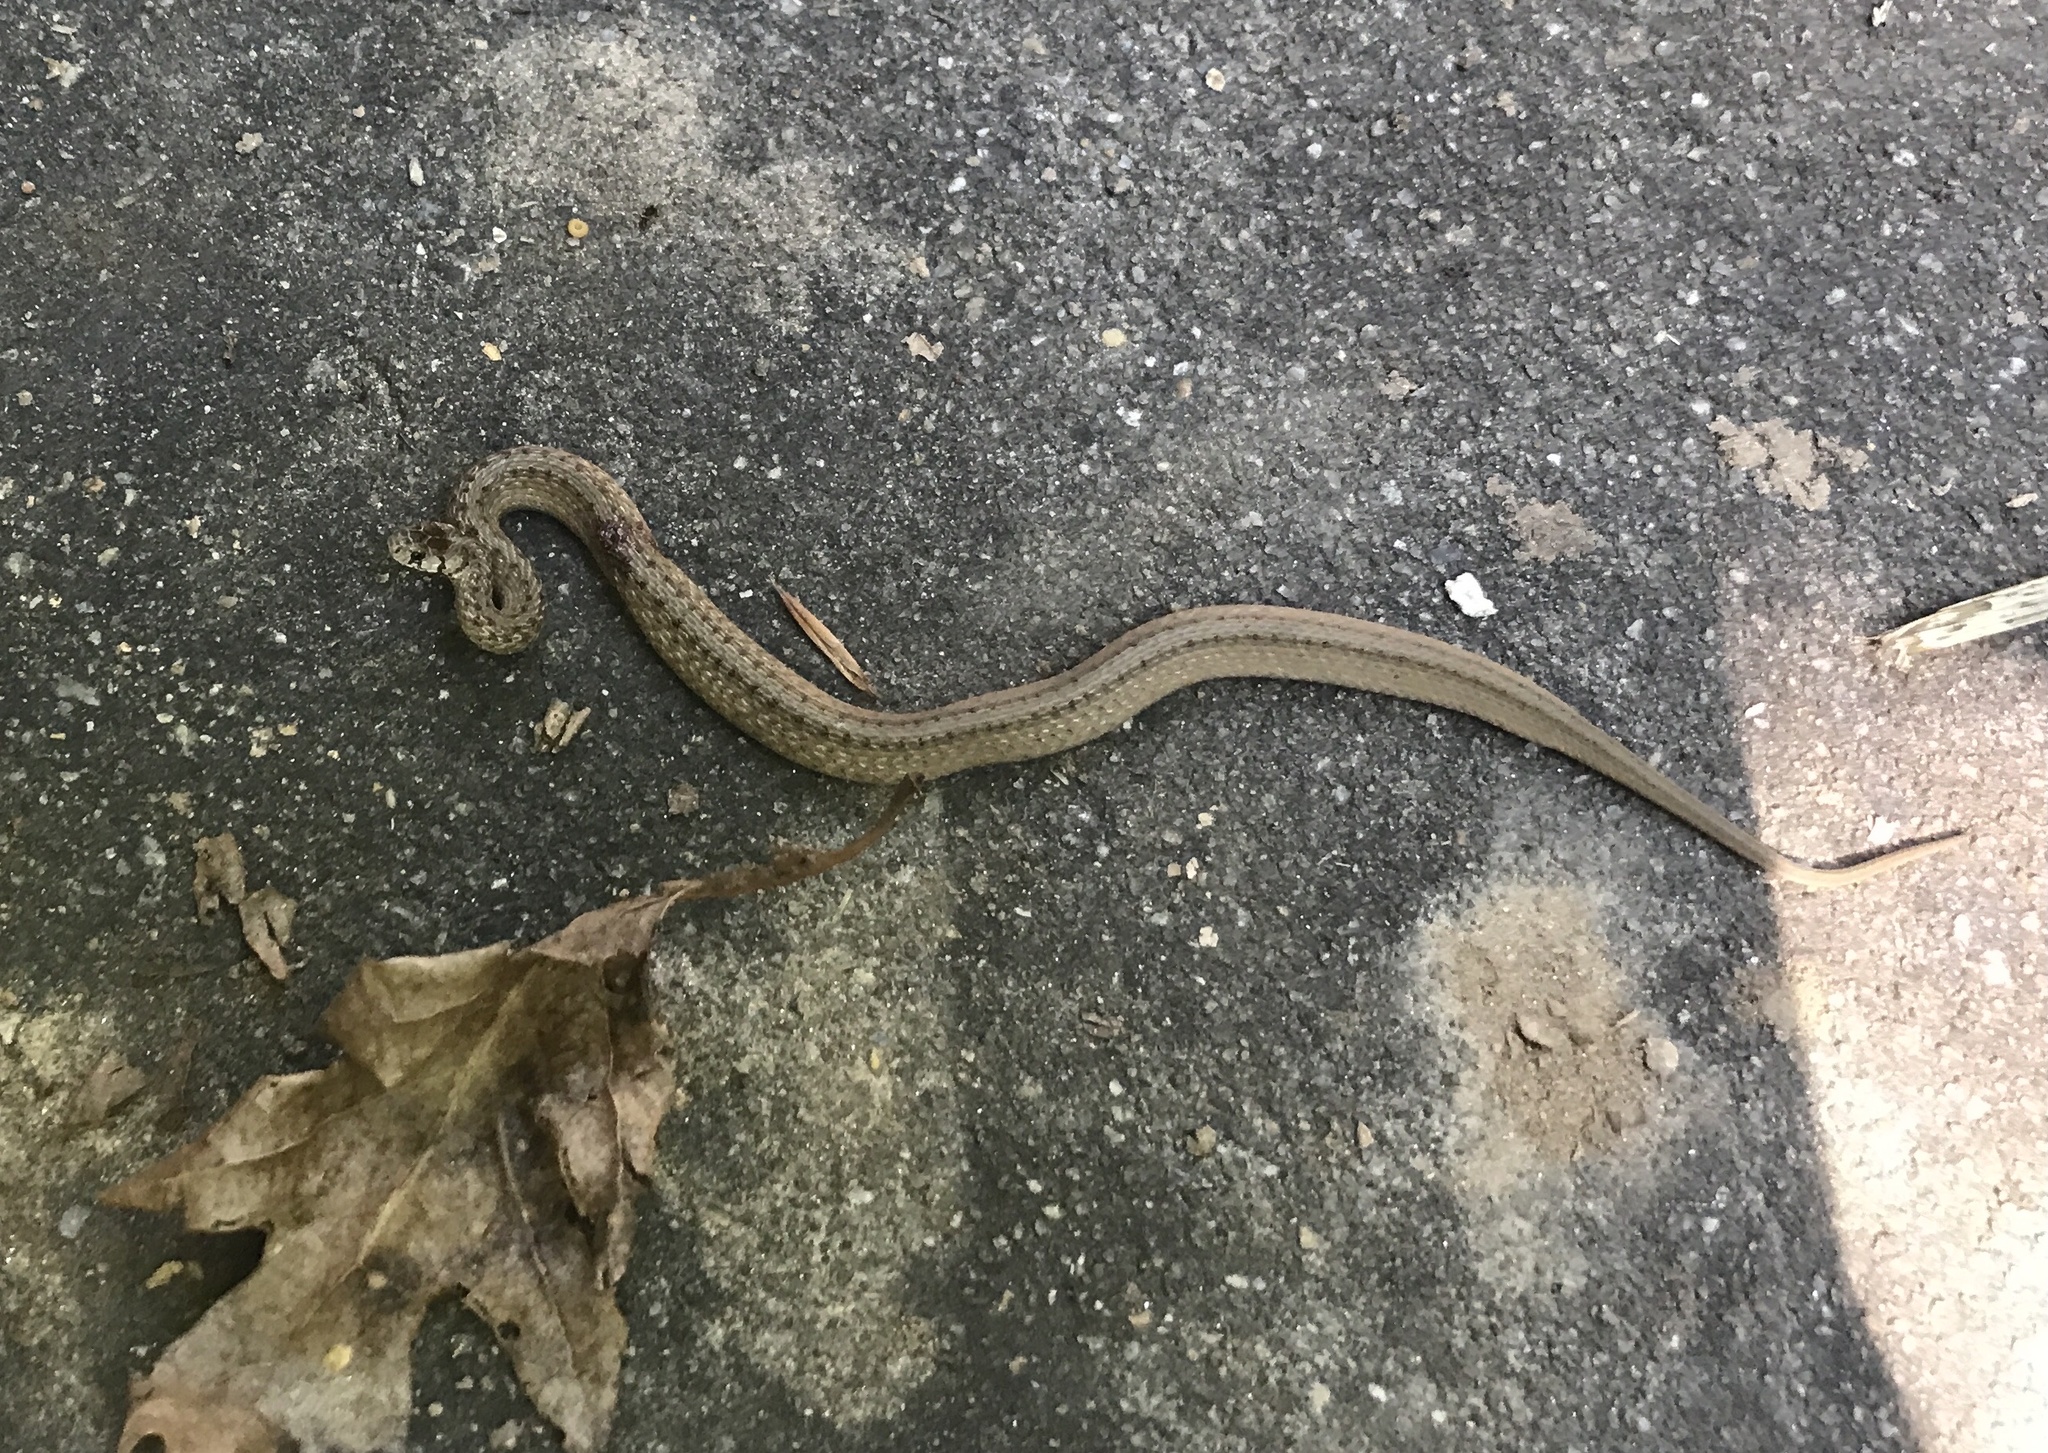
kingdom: Animalia
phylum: Chordata
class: Squamata
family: Colubridae
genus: Storeria
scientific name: Storeria dekayi
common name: (dekay’s) brown snake
